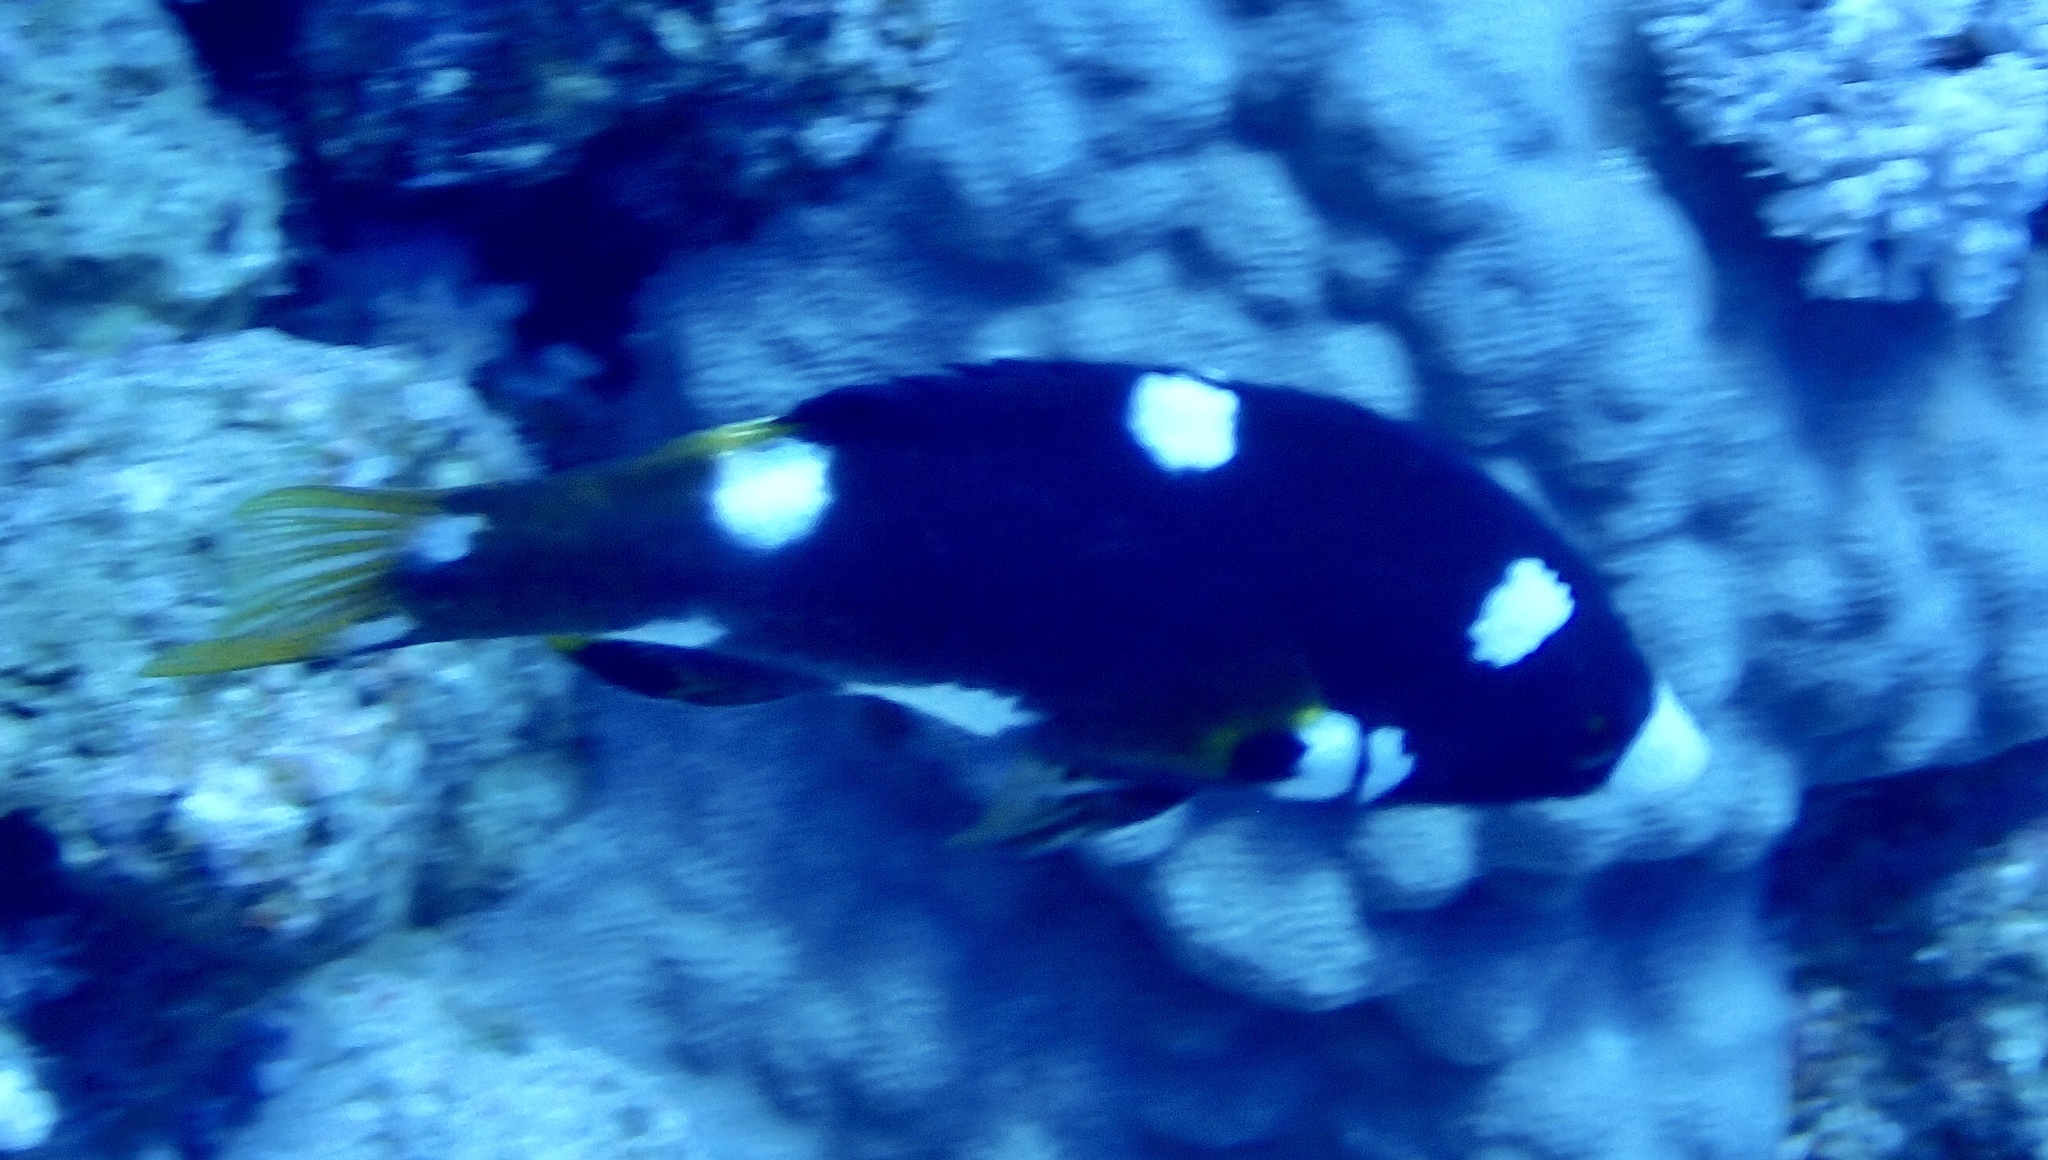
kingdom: Animalia
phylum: Chordata
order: Perciformes
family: Labridae
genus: Bodianus
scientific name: Bodianus axillaris
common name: Axilspot hogfish
